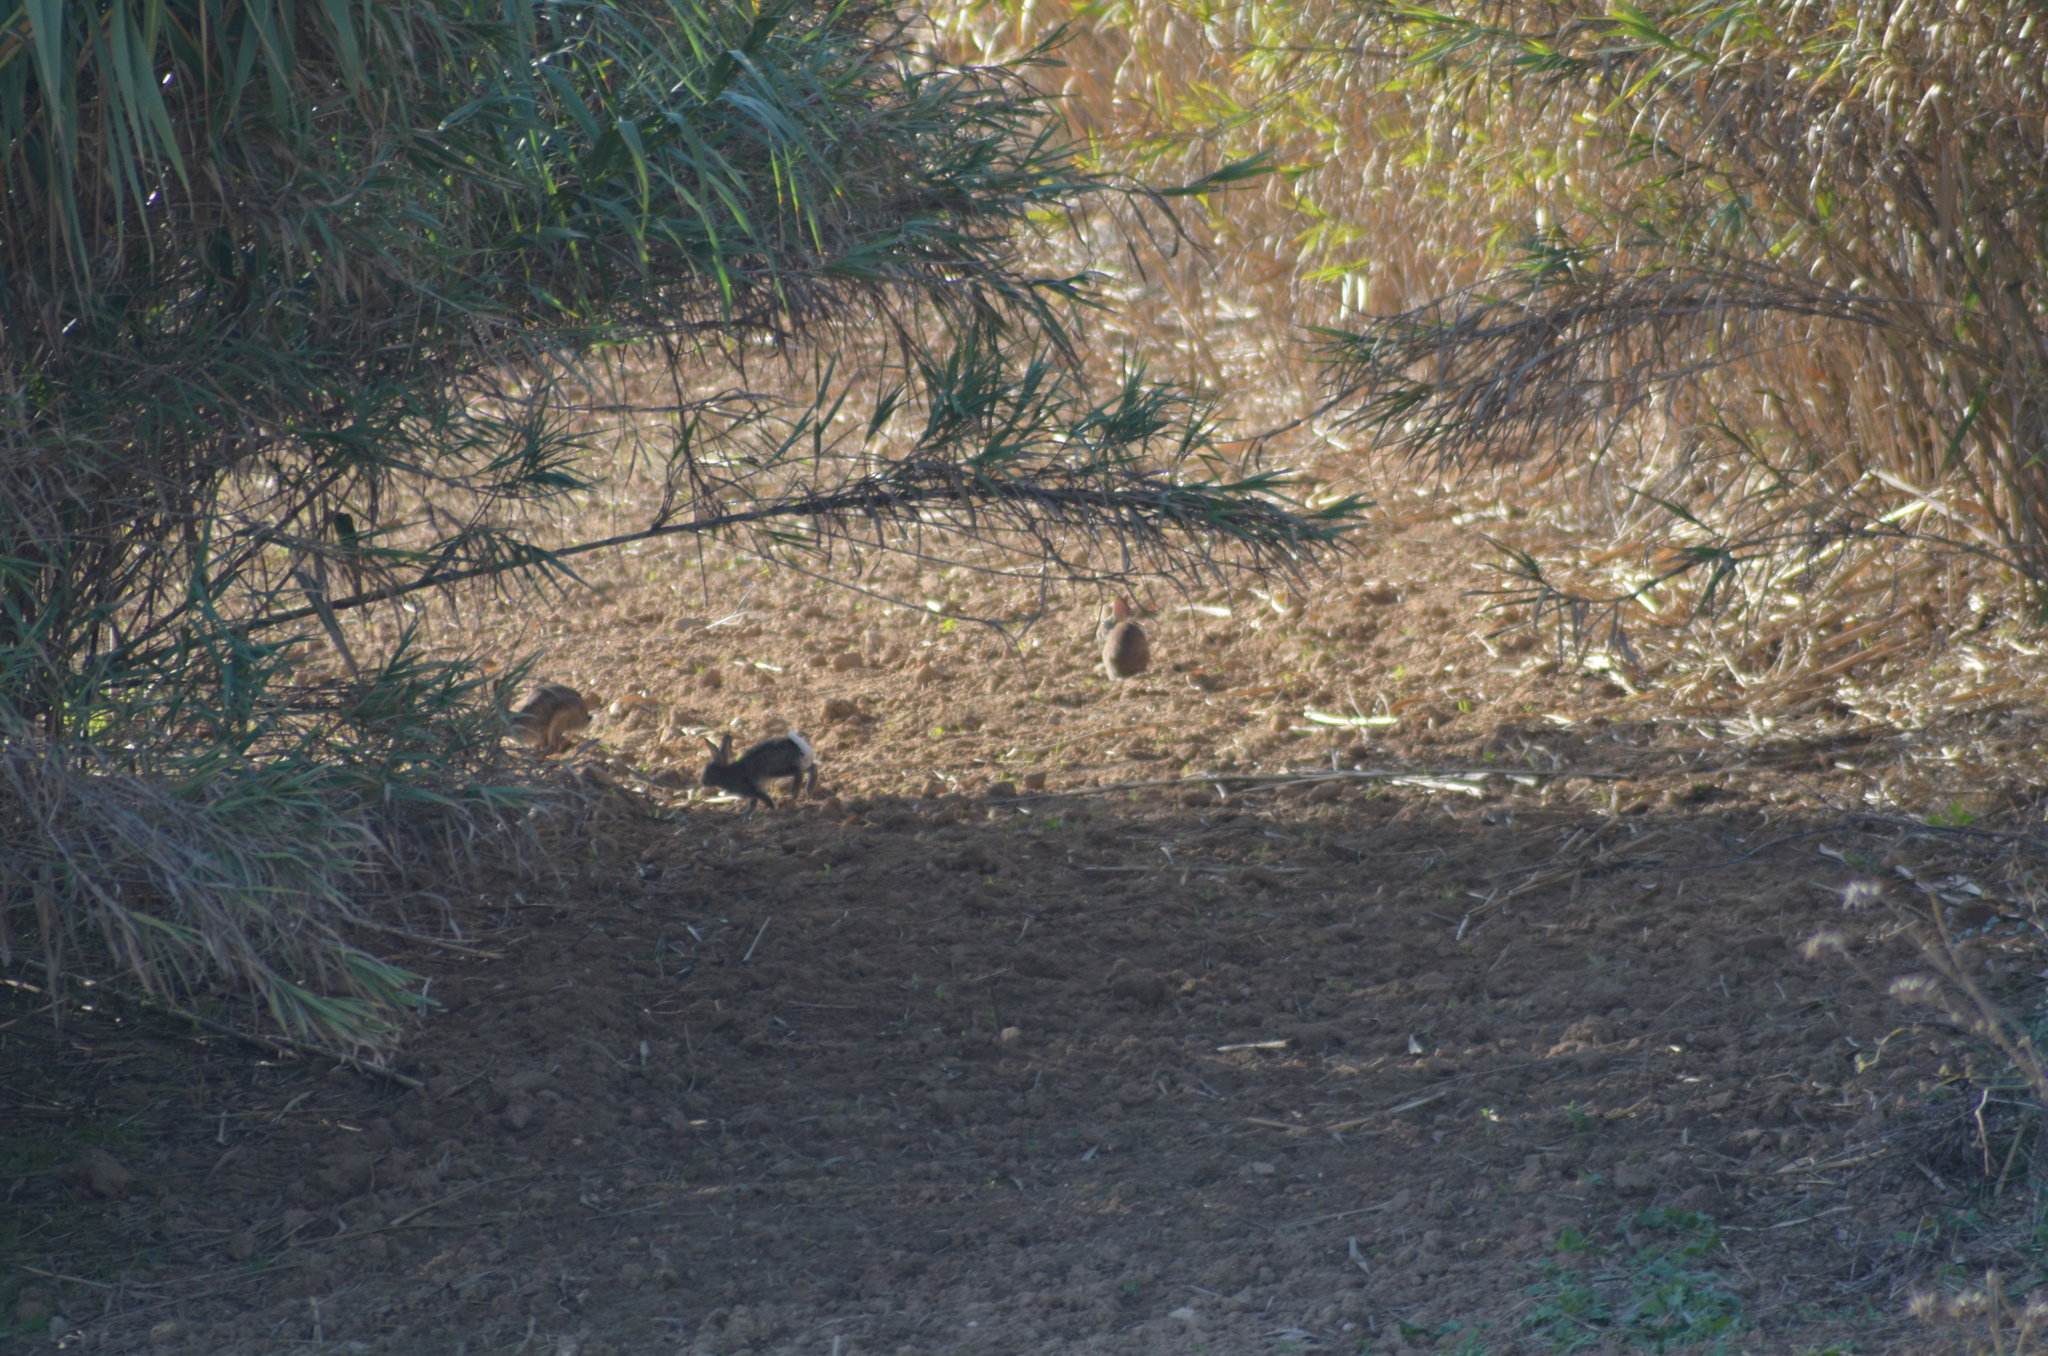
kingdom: Animalia
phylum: Chordata
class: Mammalia
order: Lagomorpha
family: Leporidae
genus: Oryctolagus
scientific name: Oryctolagus cuniculus
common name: European rabbit
